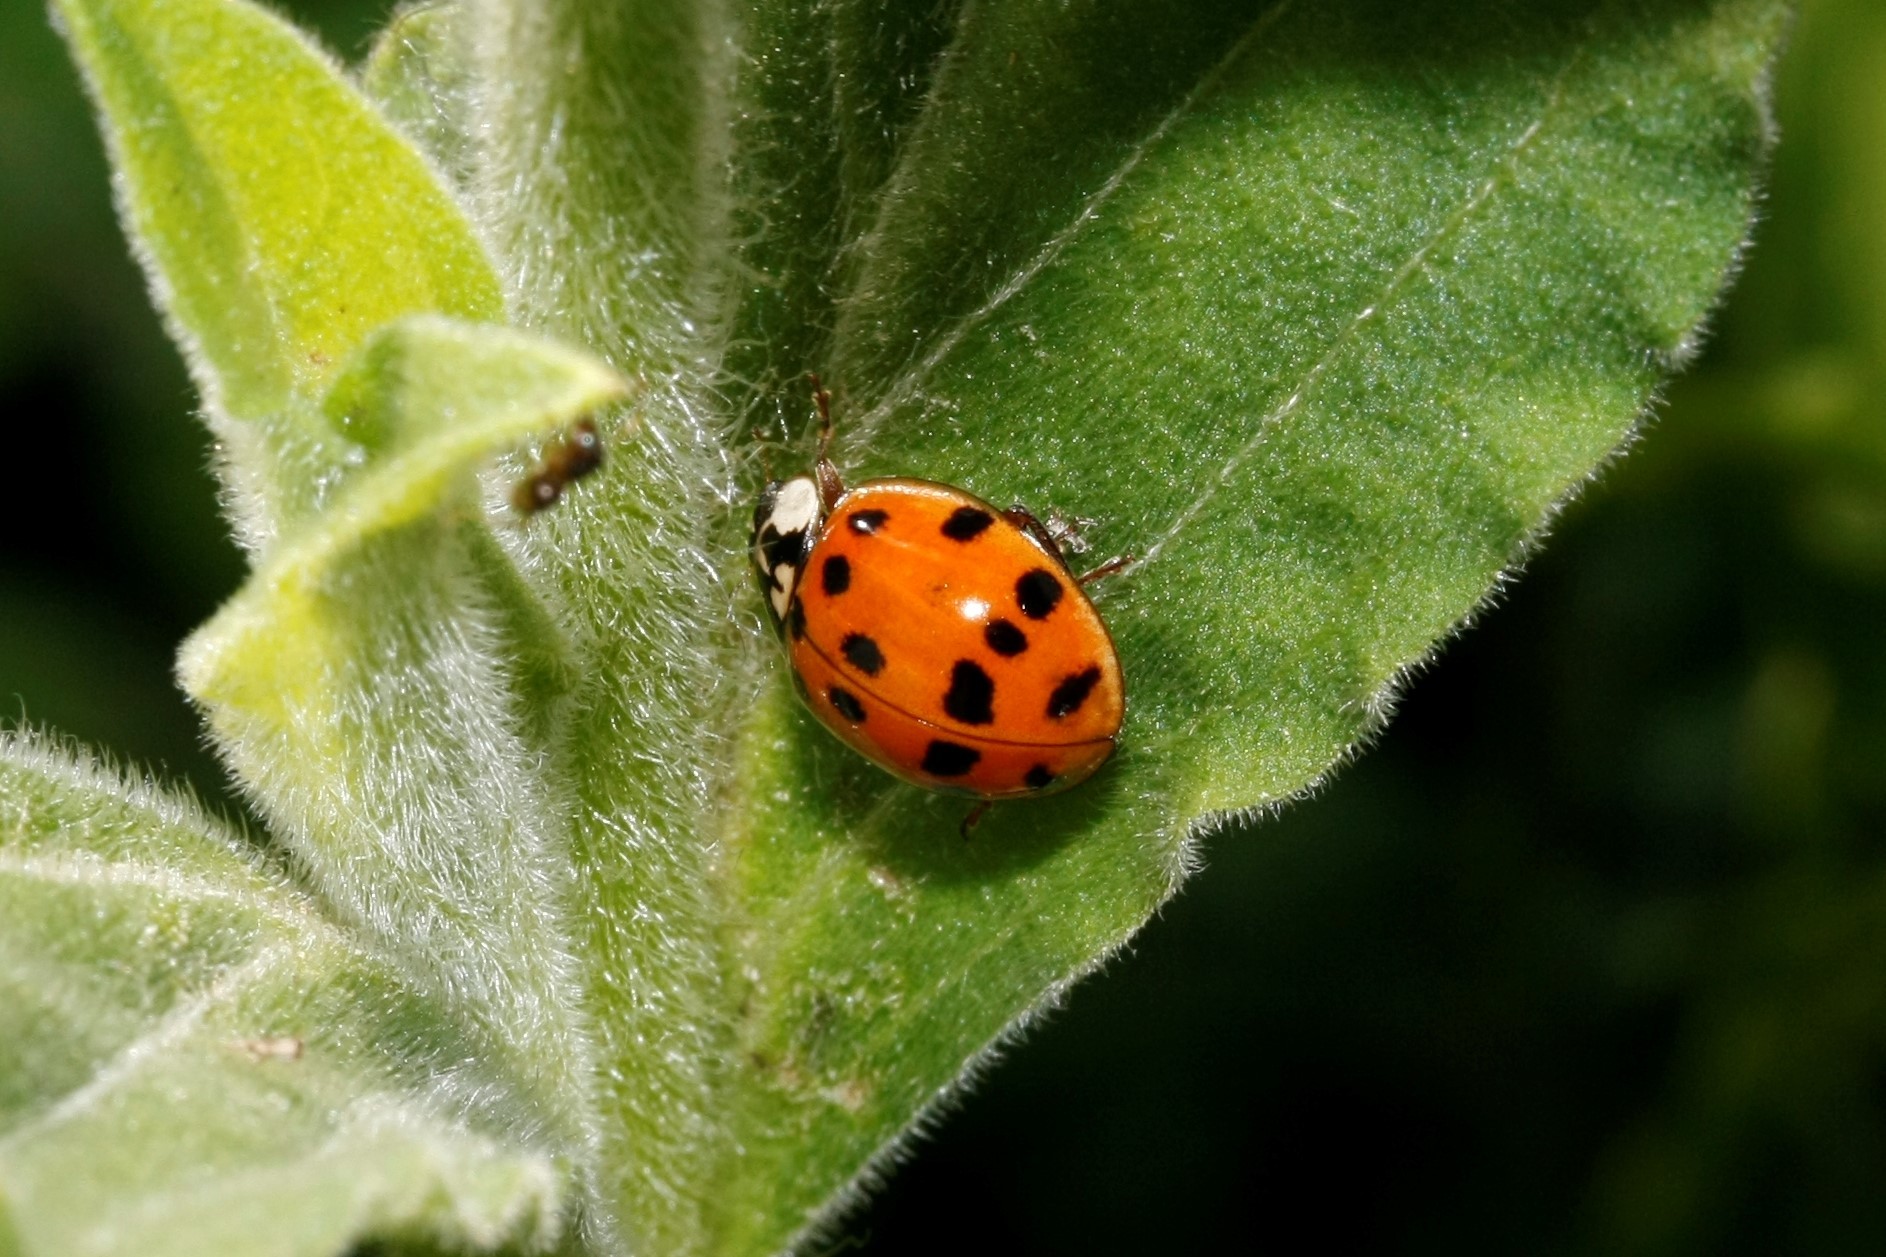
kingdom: Animalia
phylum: Arthropoda
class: Insecta
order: Coleoptera
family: Coccinellidae
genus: Harmonia
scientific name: Harmonia axyridis
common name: Harlequin ladybird
